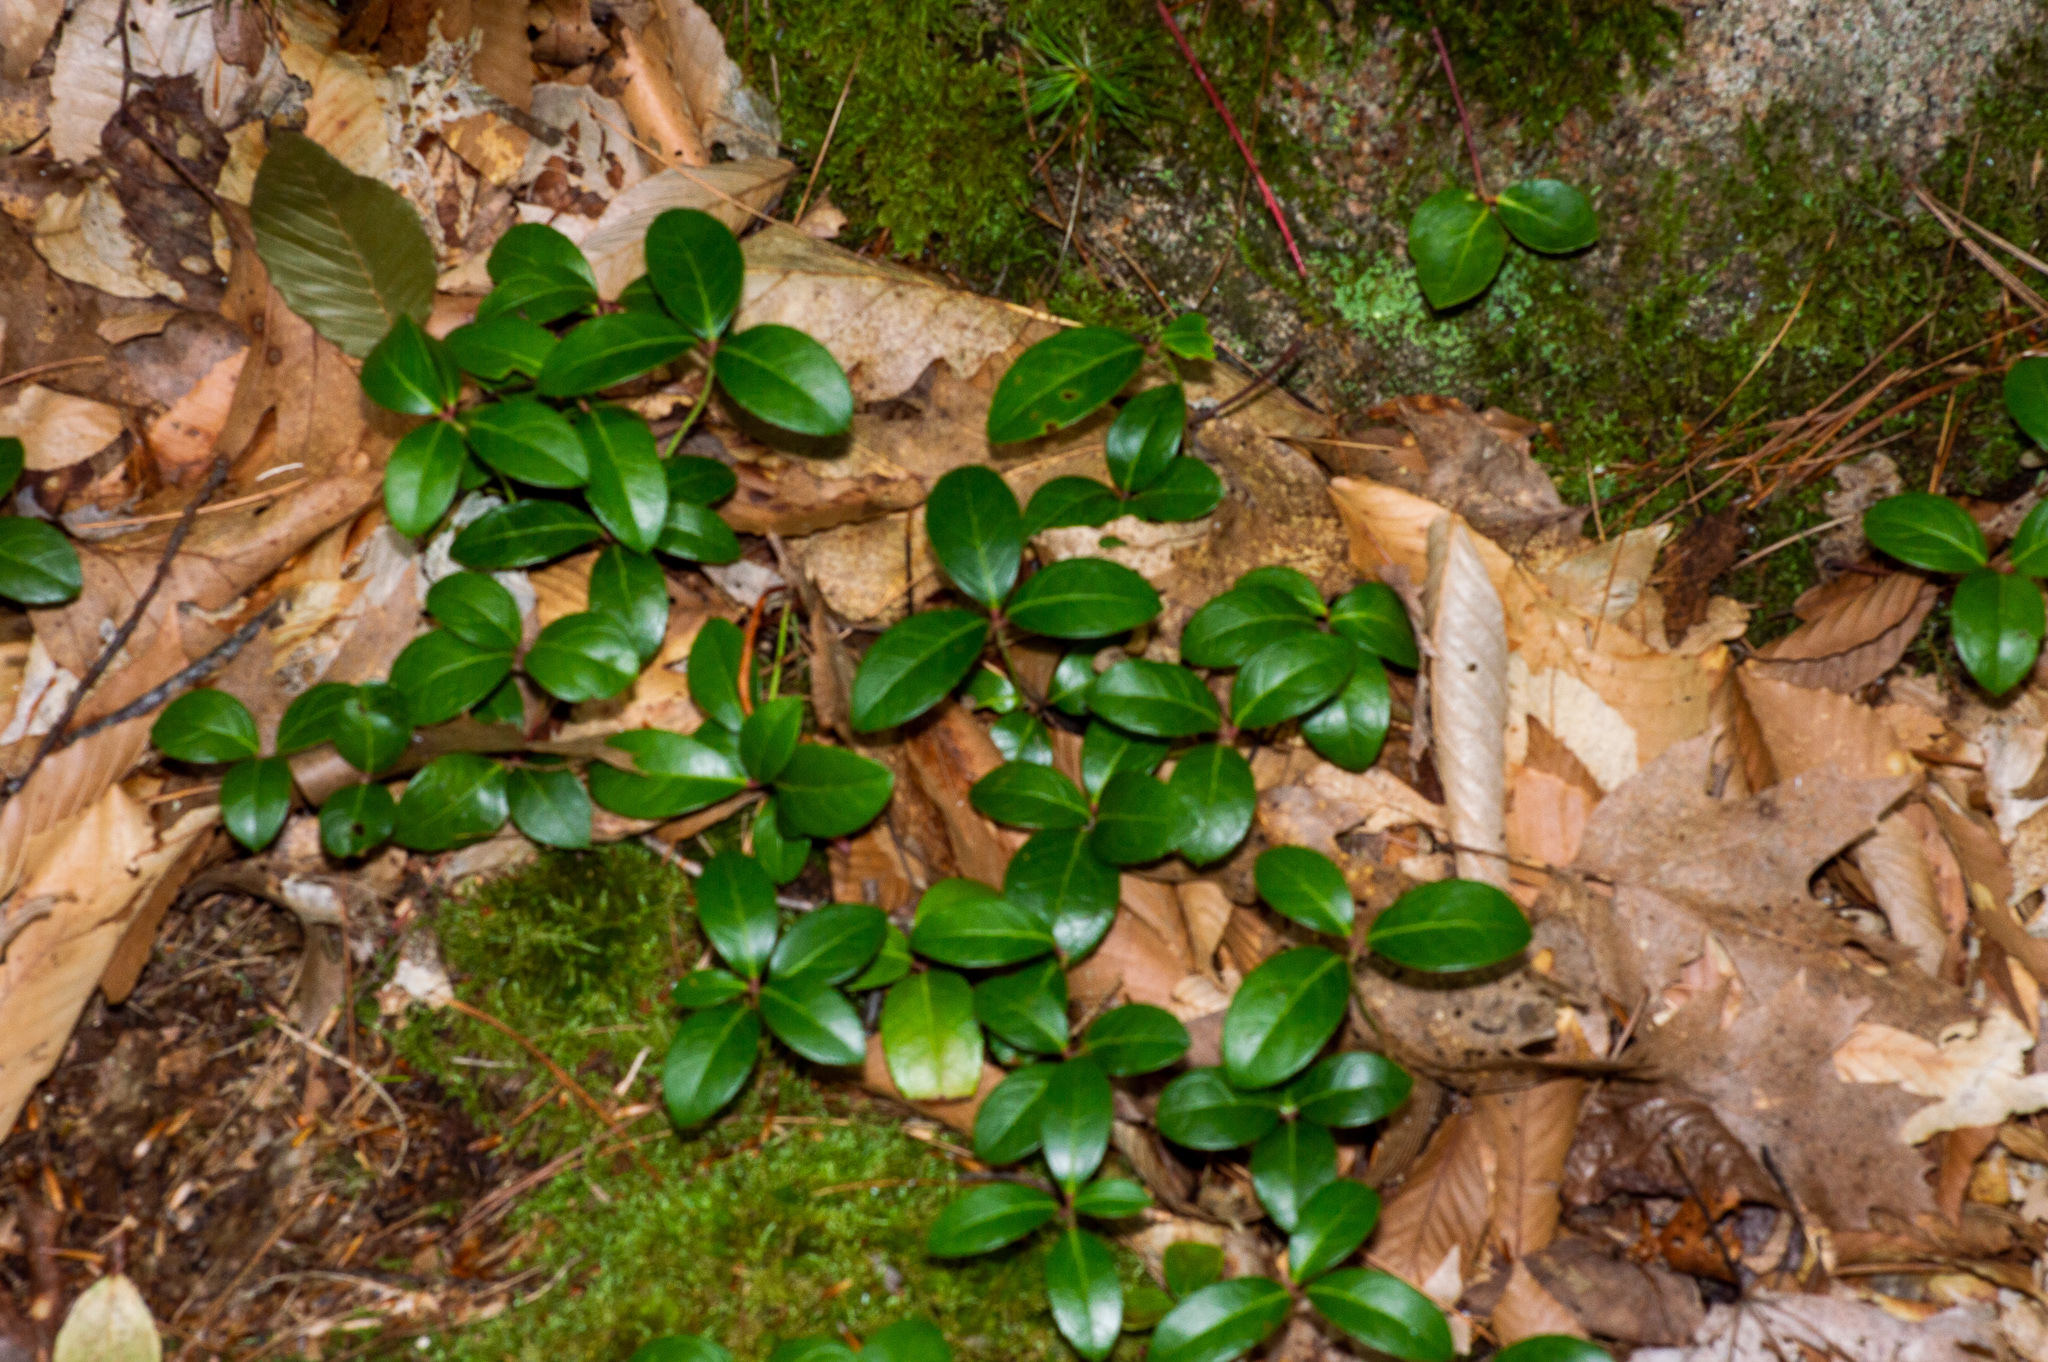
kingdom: Plantae
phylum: Tracheophyta
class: Magnoliopsida
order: Ericales
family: Ericaceae
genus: Gaultheria
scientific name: Gaultheria procumbens
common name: Checkerberry
